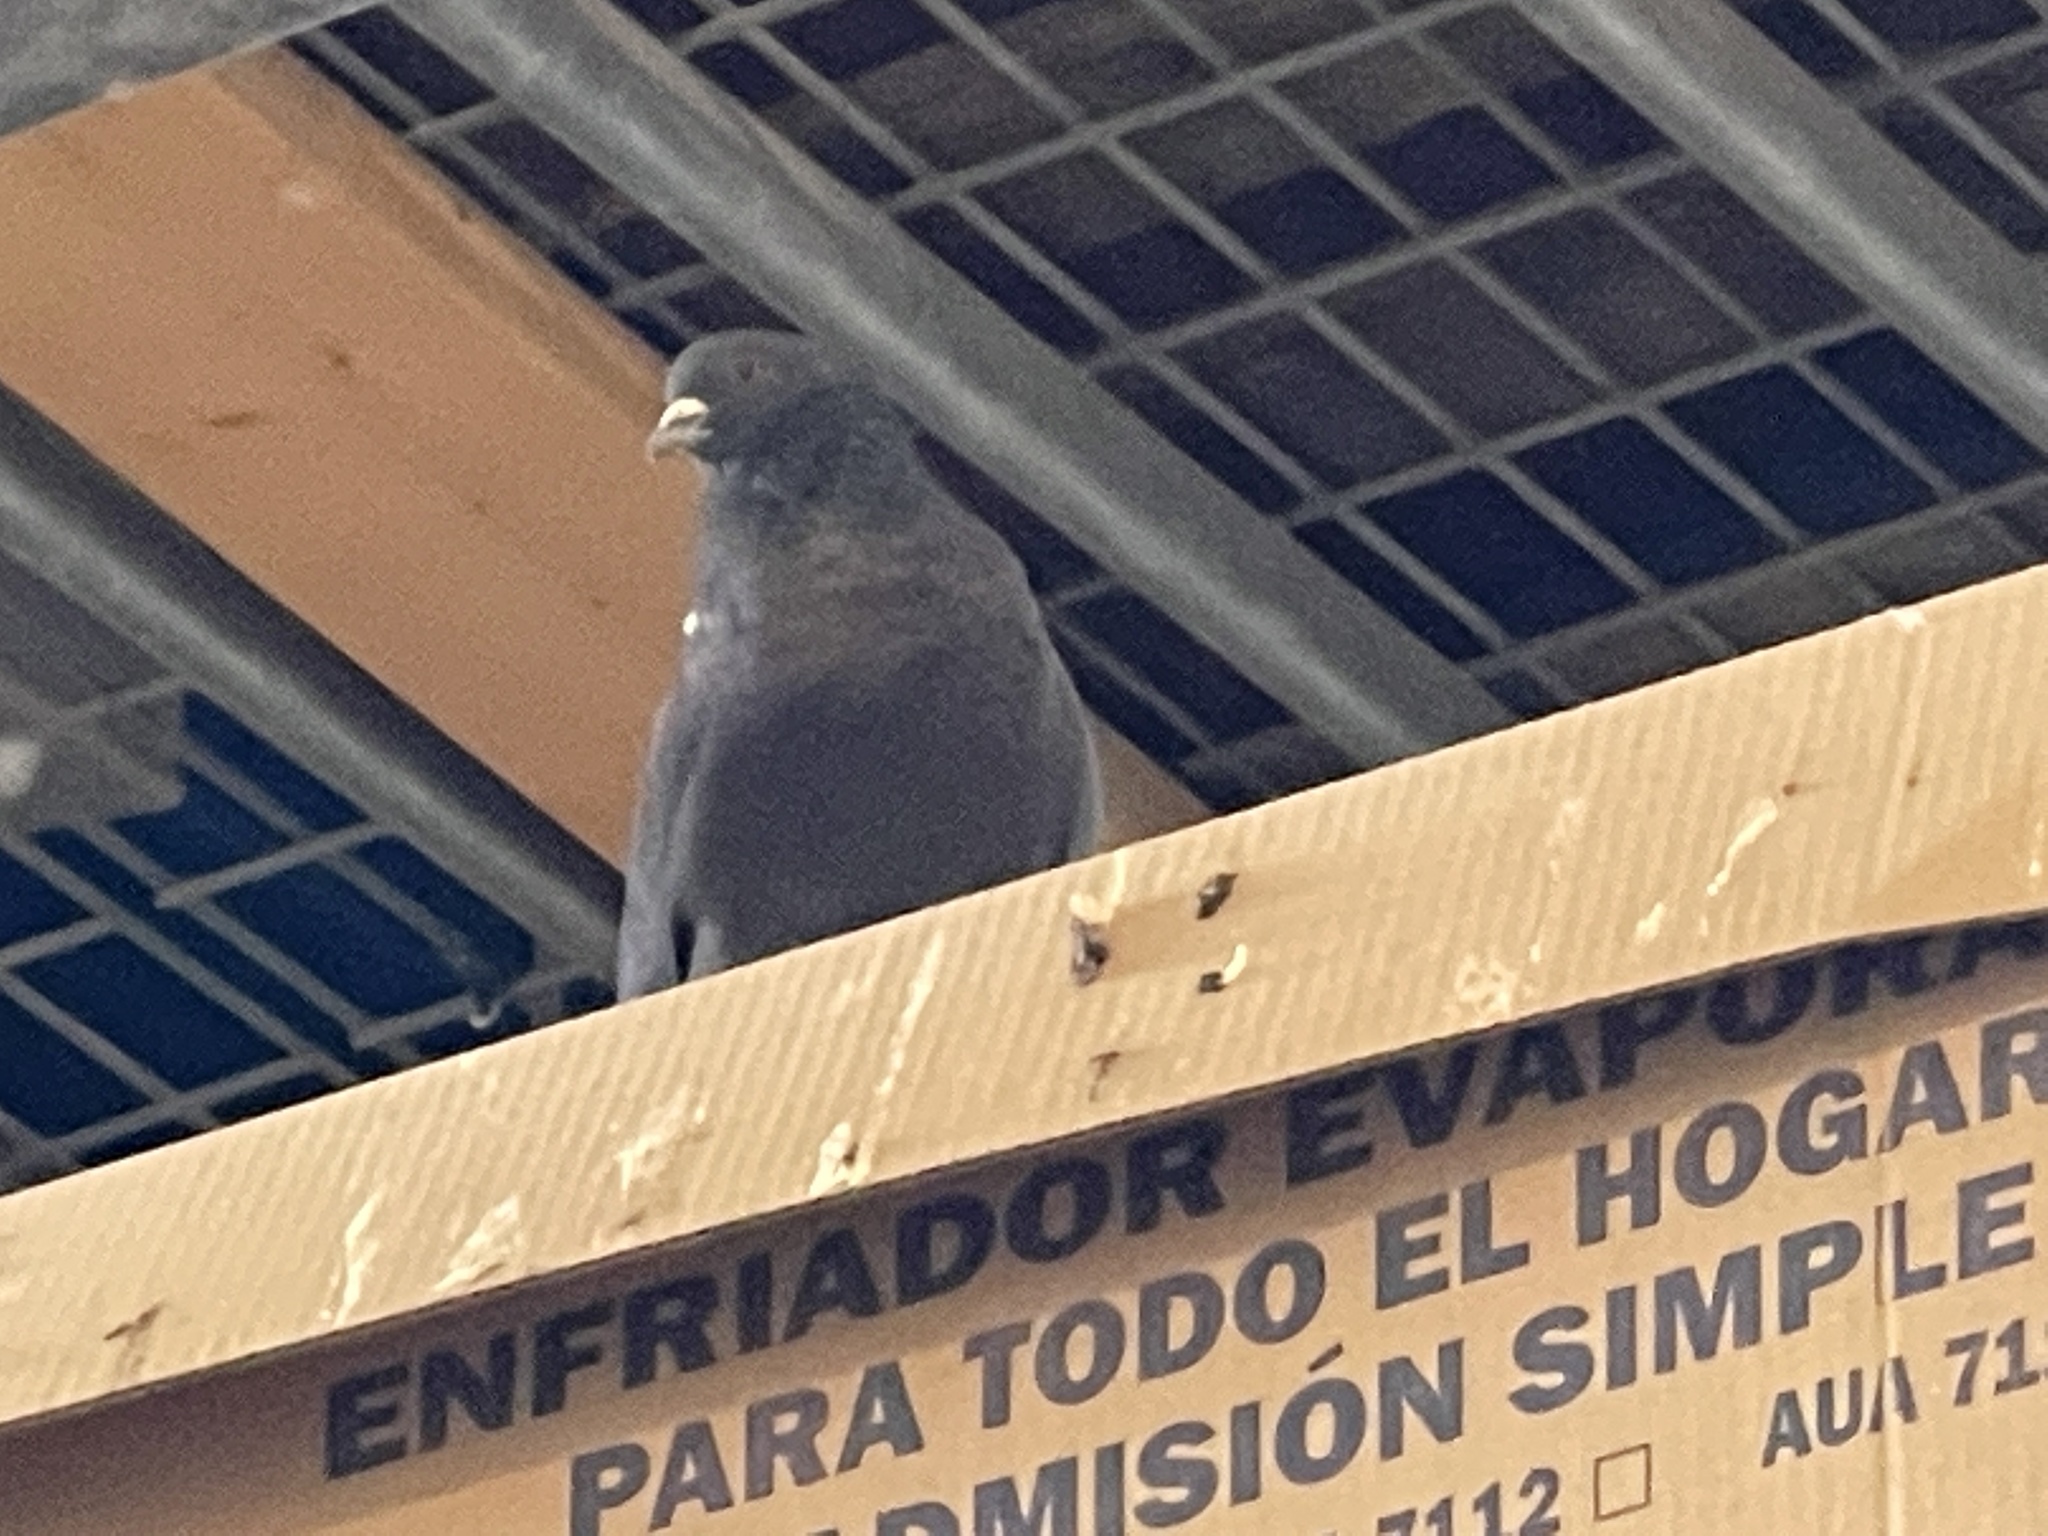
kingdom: Animalia
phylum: Chordata
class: Aves
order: Columbiformes
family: Columbidae
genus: Columba
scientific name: Columba livia
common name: Rock pigeon
